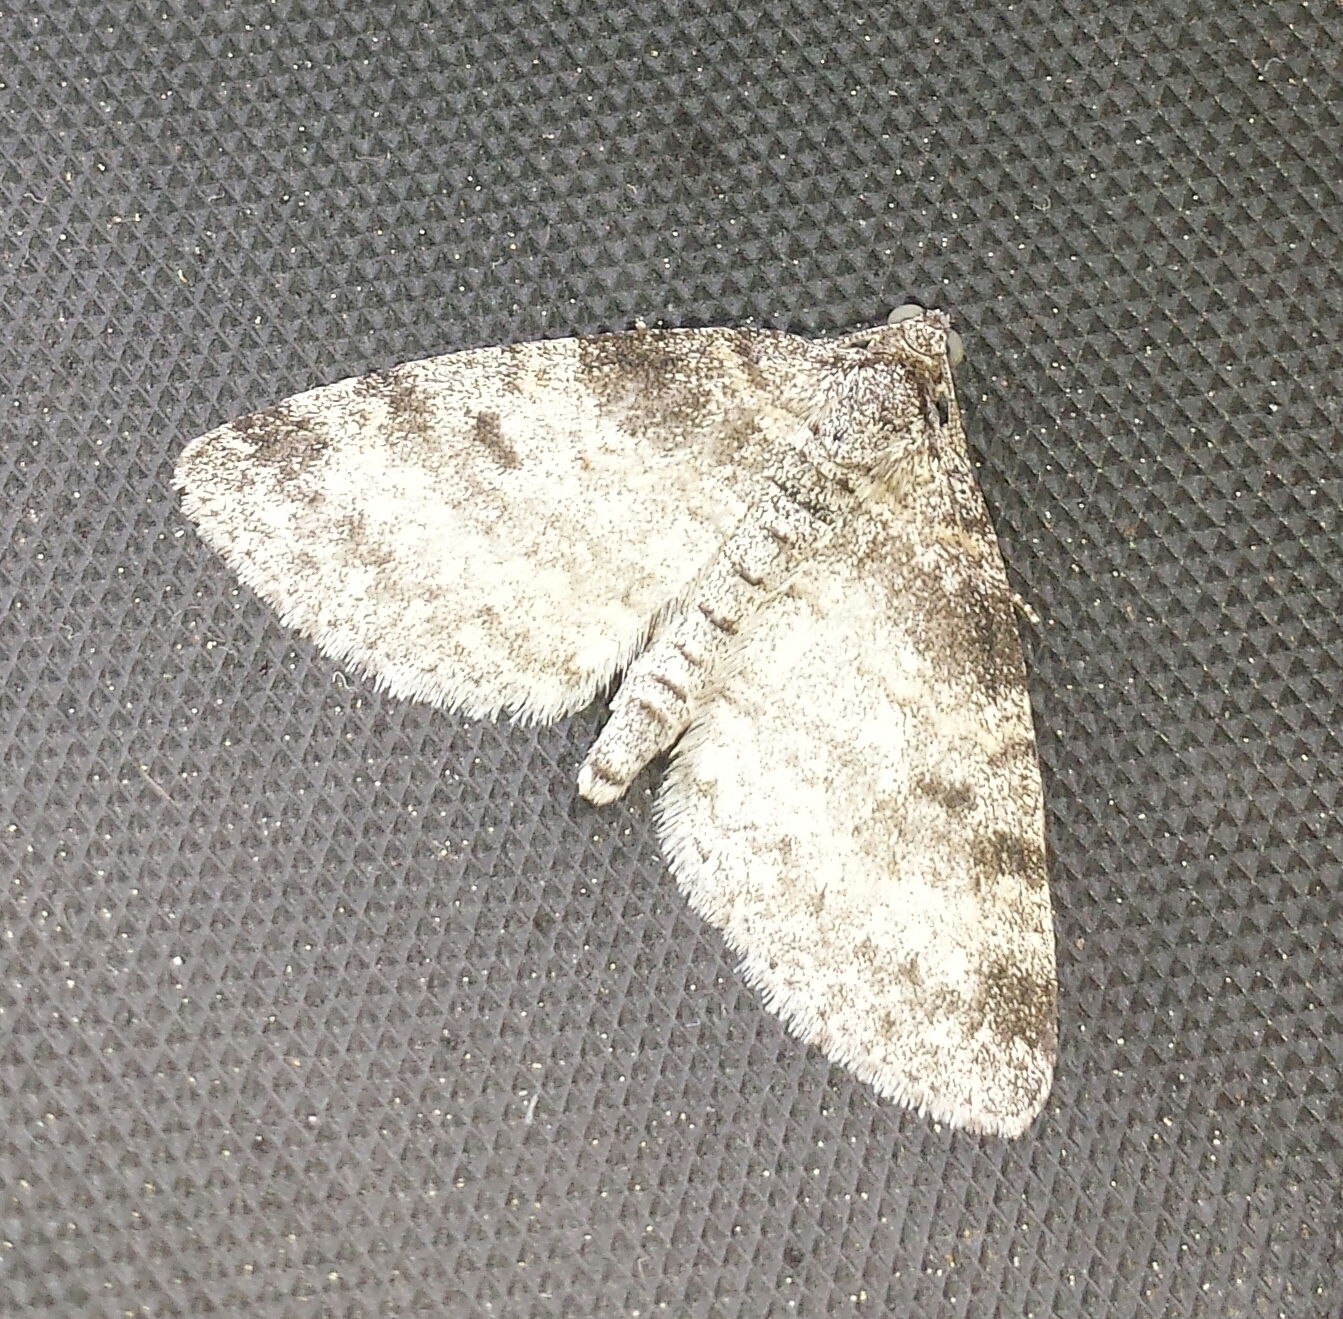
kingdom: Animalia
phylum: Arthropoda
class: Insecta
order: Lepidoptera
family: Geometridae
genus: Lobophora
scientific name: Lobophora nivigerata
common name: Powdered bigwing
